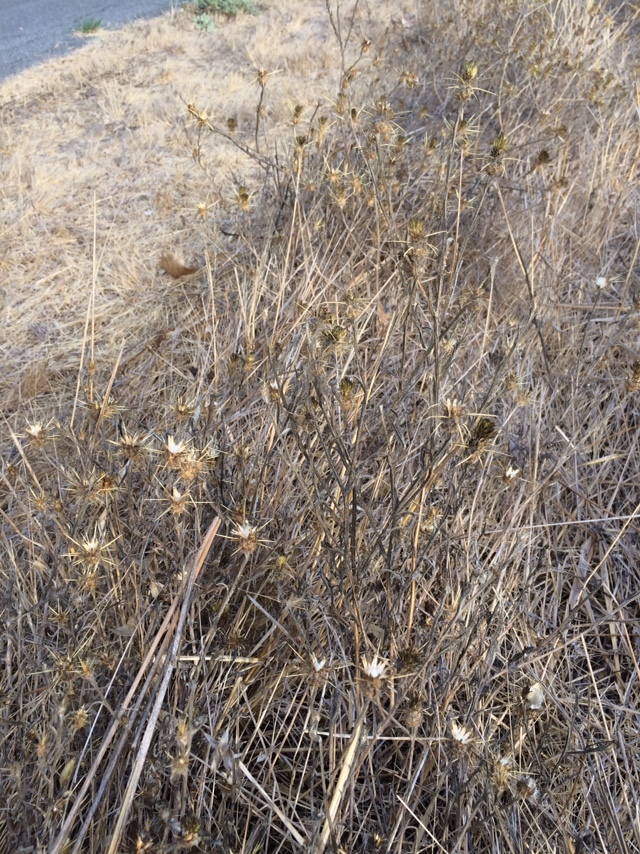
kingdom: Plantae
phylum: Tracheophyta
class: Magnoliopsida
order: Asterales
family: Asteraceae
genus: Centaurea
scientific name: Centaurea solstitialis
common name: Yellow star-thistle
